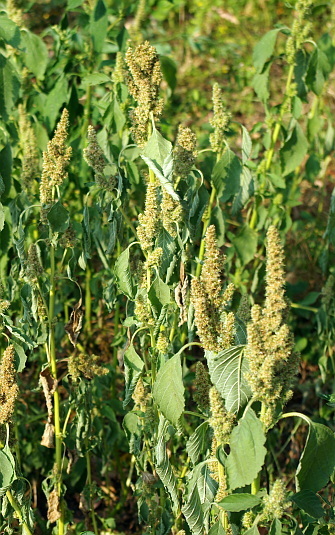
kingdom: Plantae
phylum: Tracheophyta
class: Magnoliopsida
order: Caryophyllales
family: Amaranthaceae
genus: Amaranthus
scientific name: Amaranthus retroflexus
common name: Redroot amaranth
